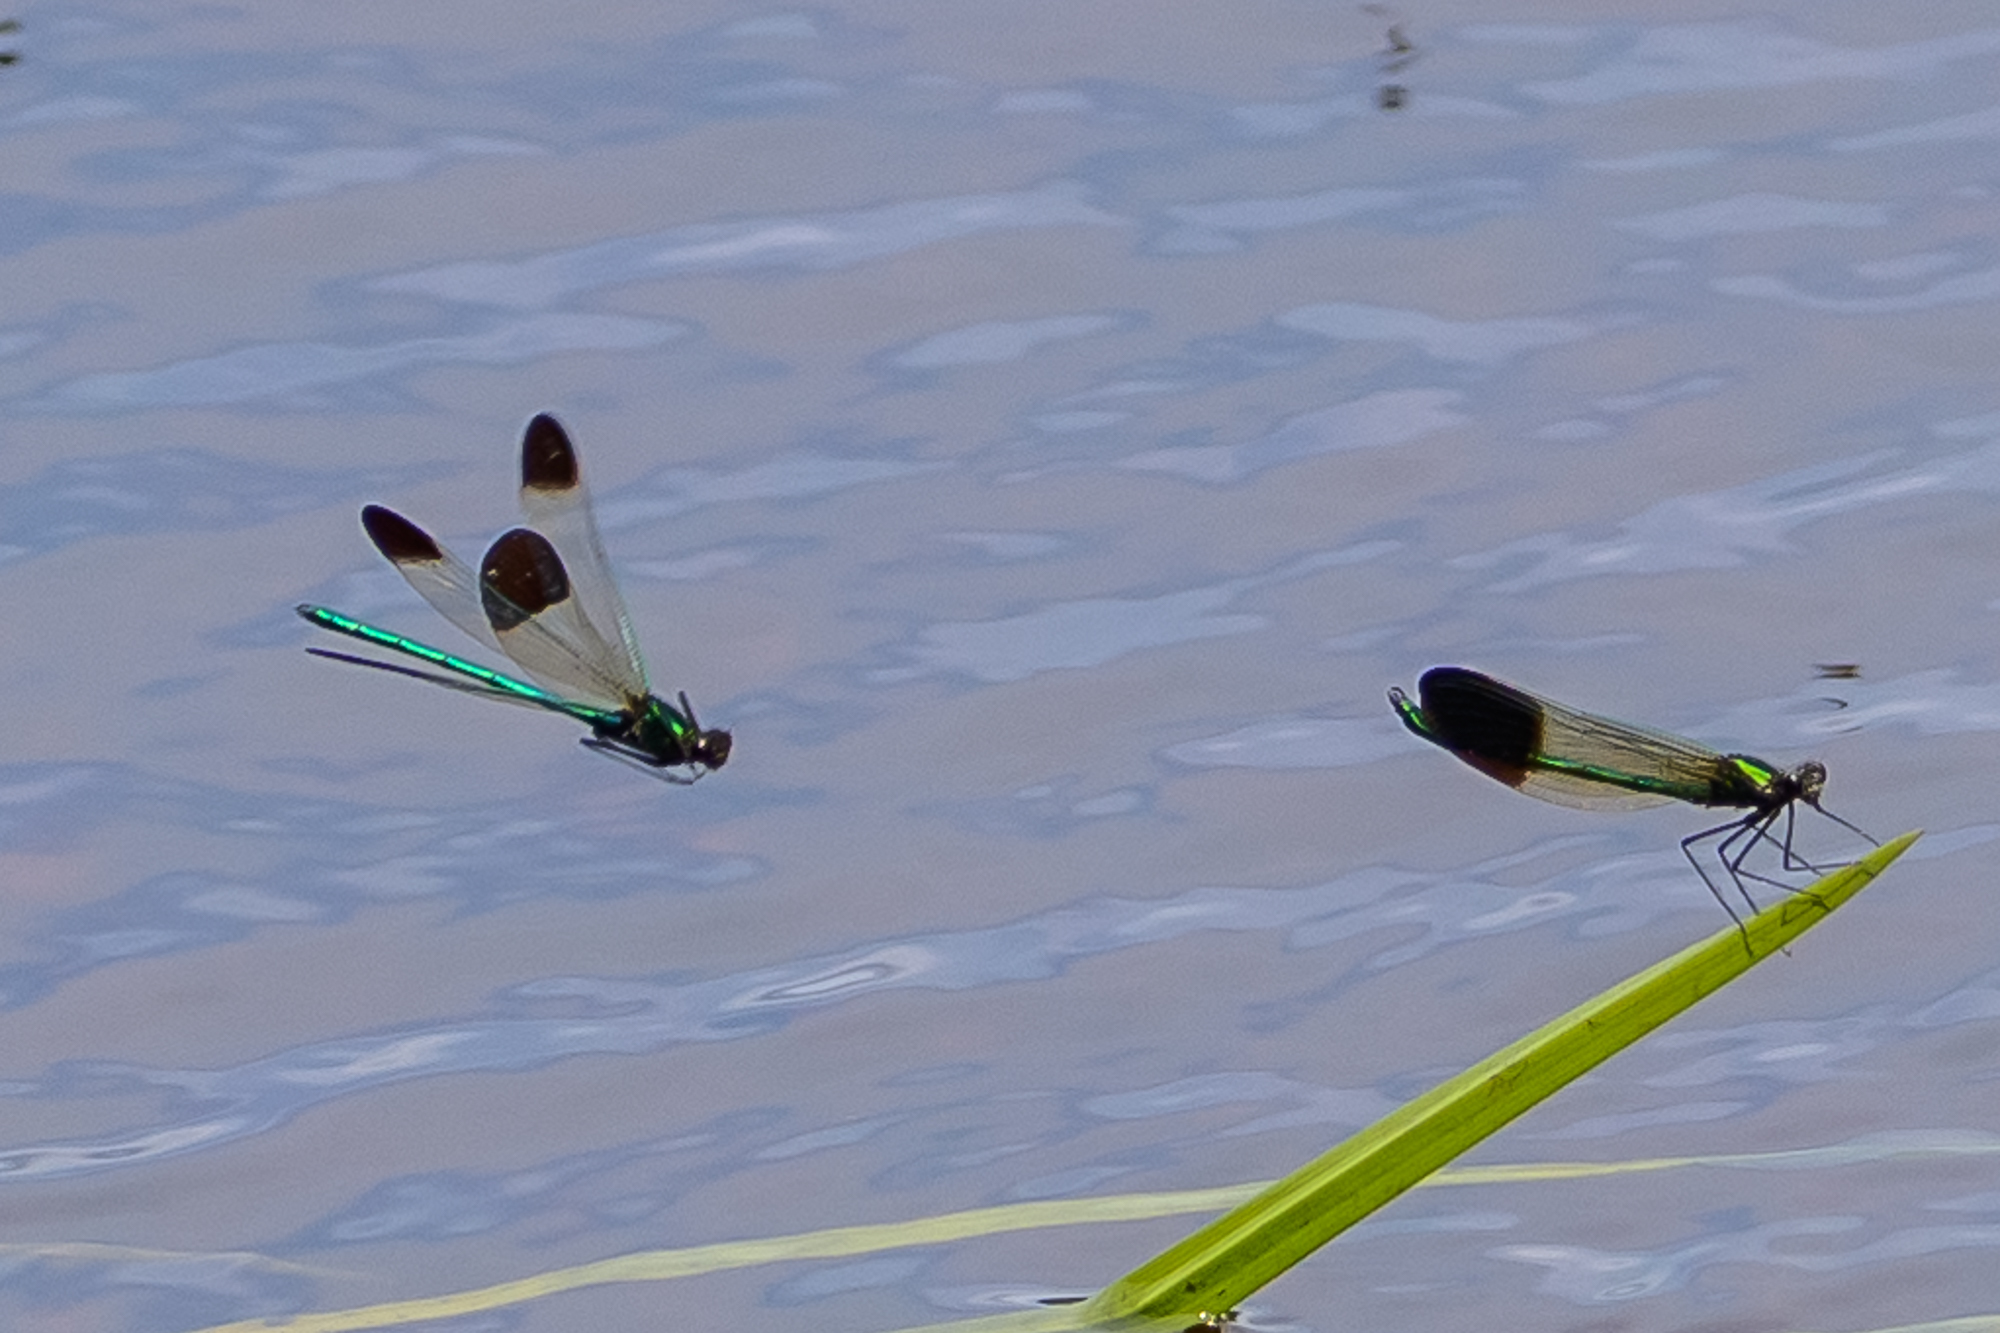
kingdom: Animalia
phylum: Arthropoda
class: Insecta
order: Odonata
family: Calopterygidae
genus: Calopteryx
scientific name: Calopteryx aequabilis
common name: River jewelwing
